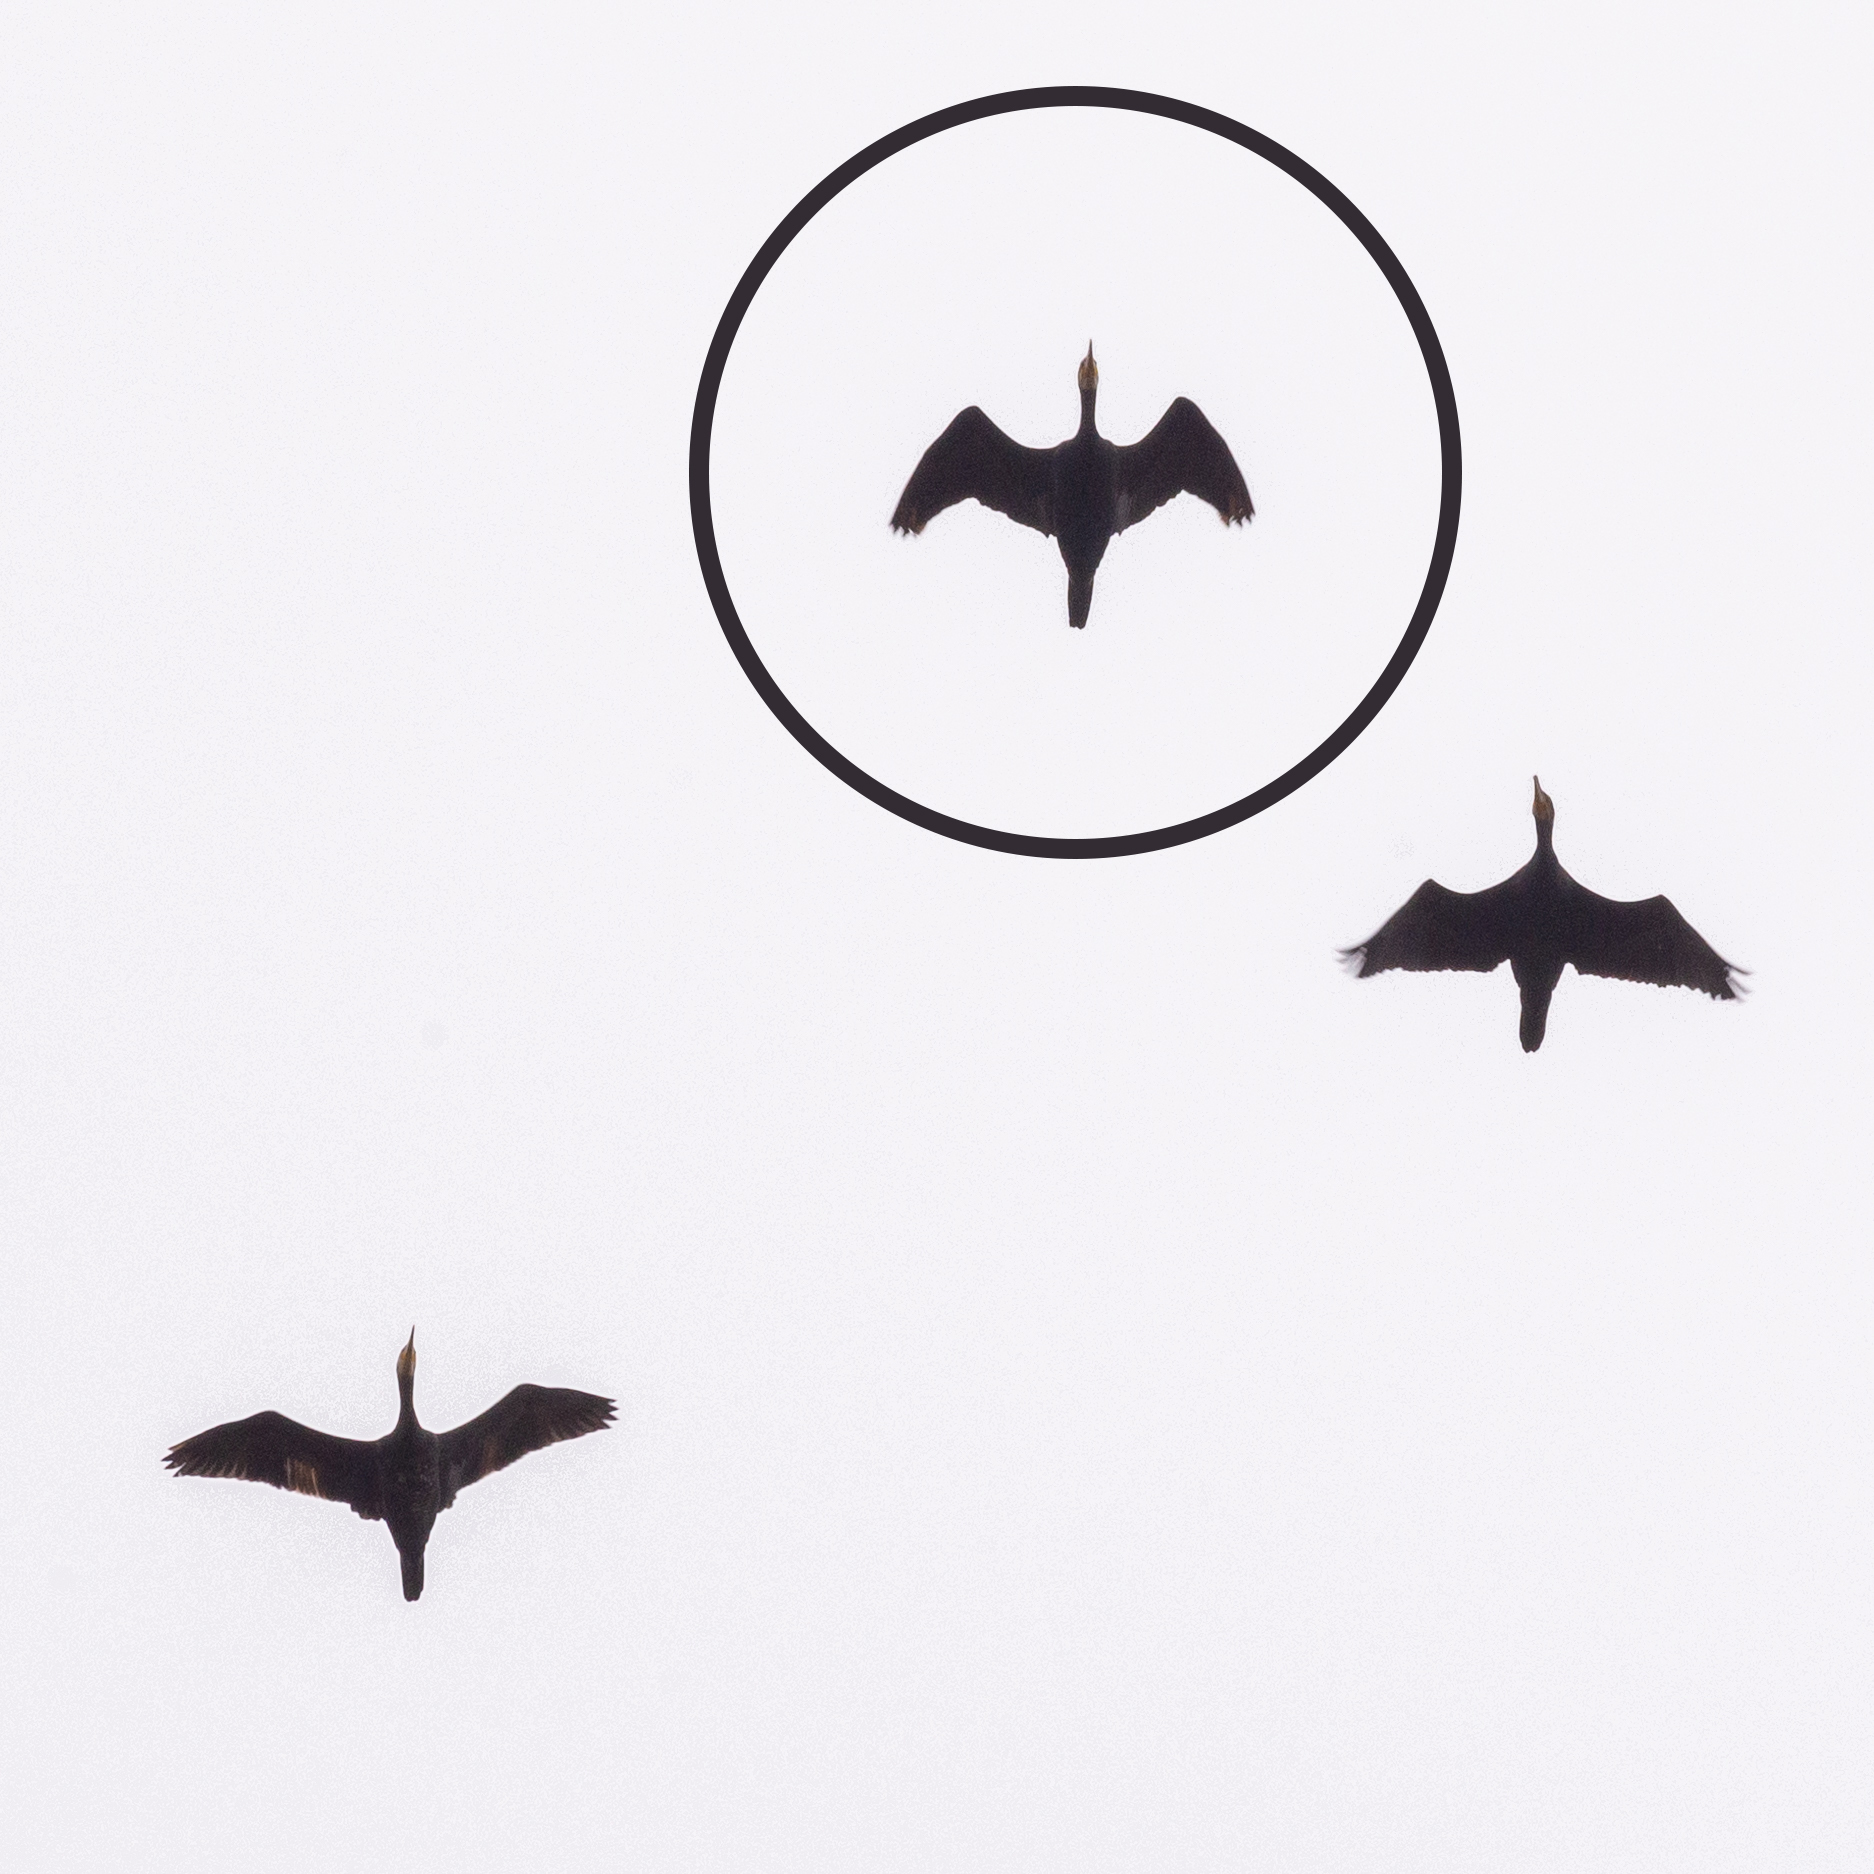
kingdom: Animalia
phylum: Chordata
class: Aves
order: Suliformes
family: Phalacrocoracidae
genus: Phalacrocorax
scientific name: Phalacrocorax carbo
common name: Great cormorant
